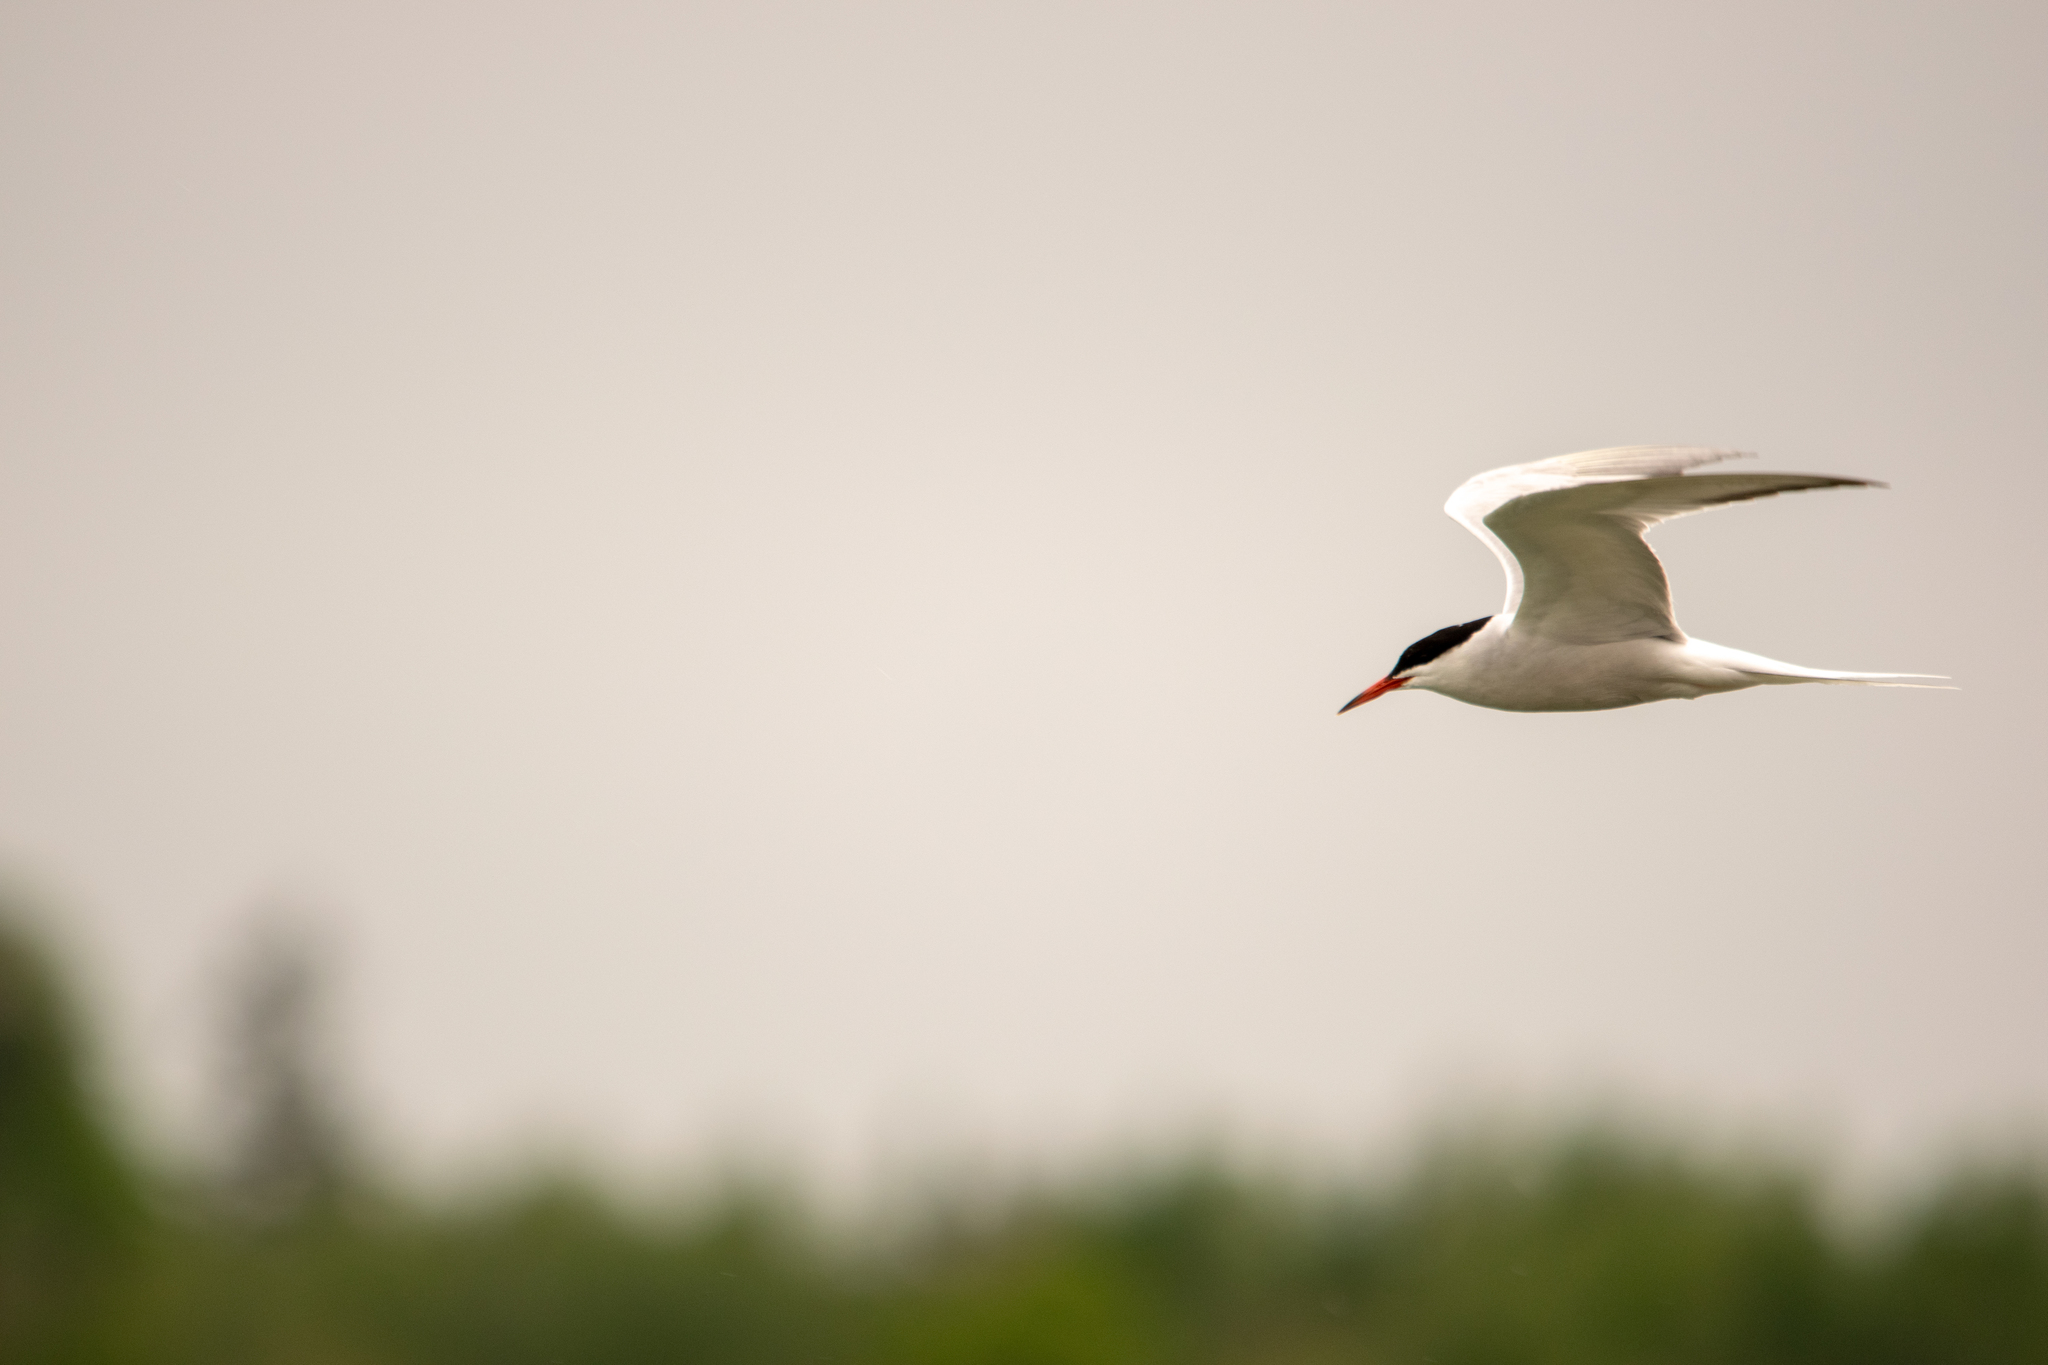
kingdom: Animalia
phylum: Chordata
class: Aves
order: Charadriiformes
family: Laridae
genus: Sterna
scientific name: Sterna hirundo
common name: Common tern
